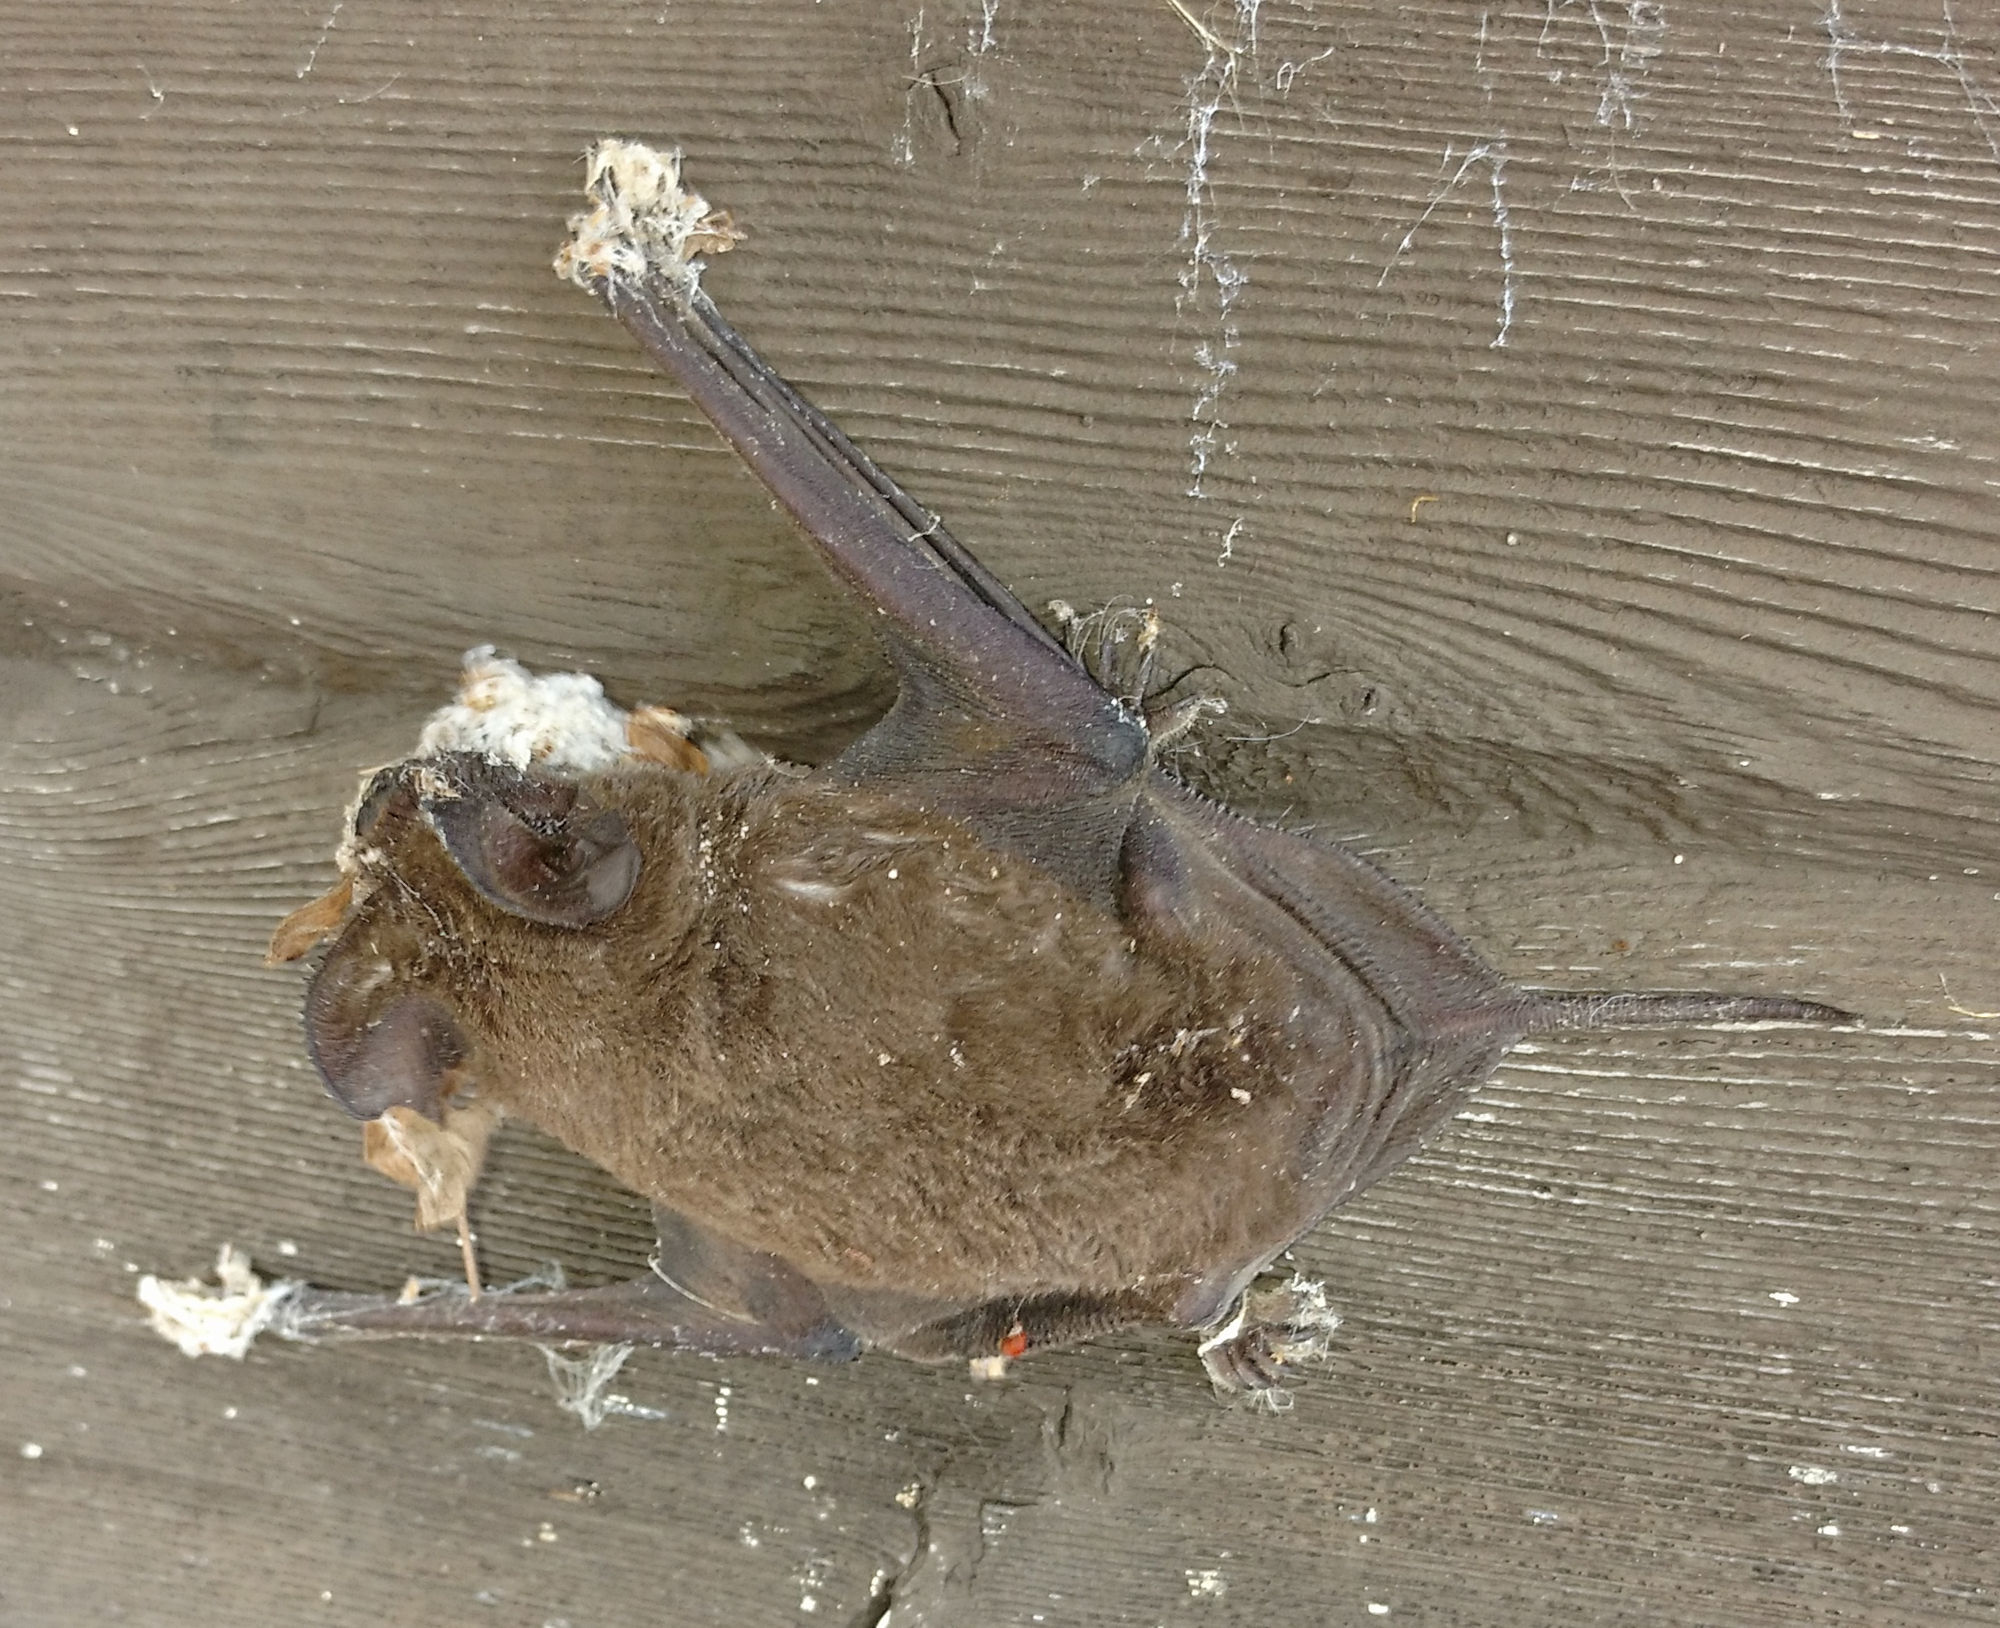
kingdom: Animalia
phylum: Chordata
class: Mammalia
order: Chiroptera
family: Molossidae
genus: Tadarida
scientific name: Tadarida brasiliensis
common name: Mexican free-tailed bat
